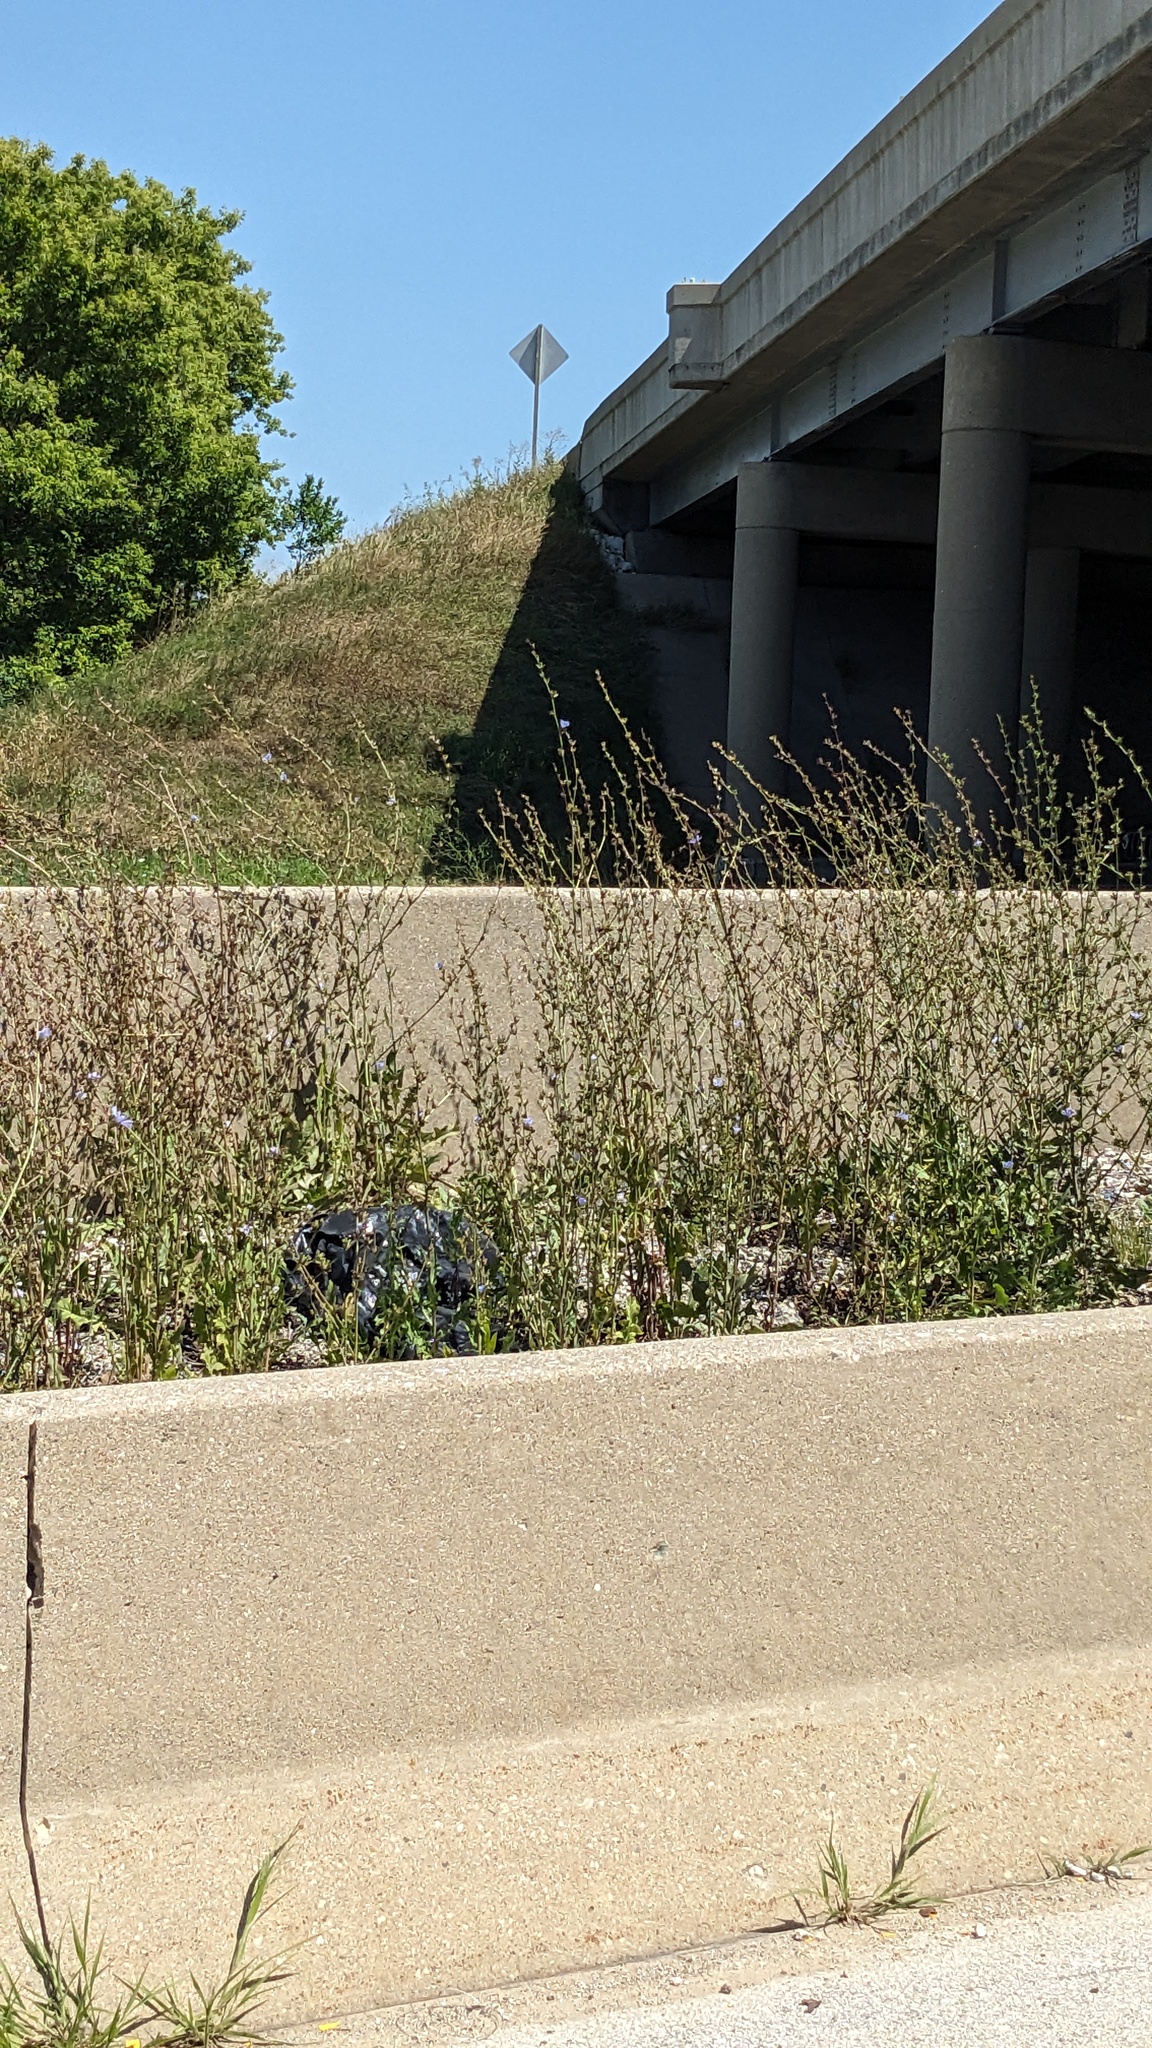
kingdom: Plantae
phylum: Tracheophyta
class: Magnoliopsida
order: Asterales
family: Asteraceae
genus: Cichorium
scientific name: Cichorium intybus
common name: Chicory
